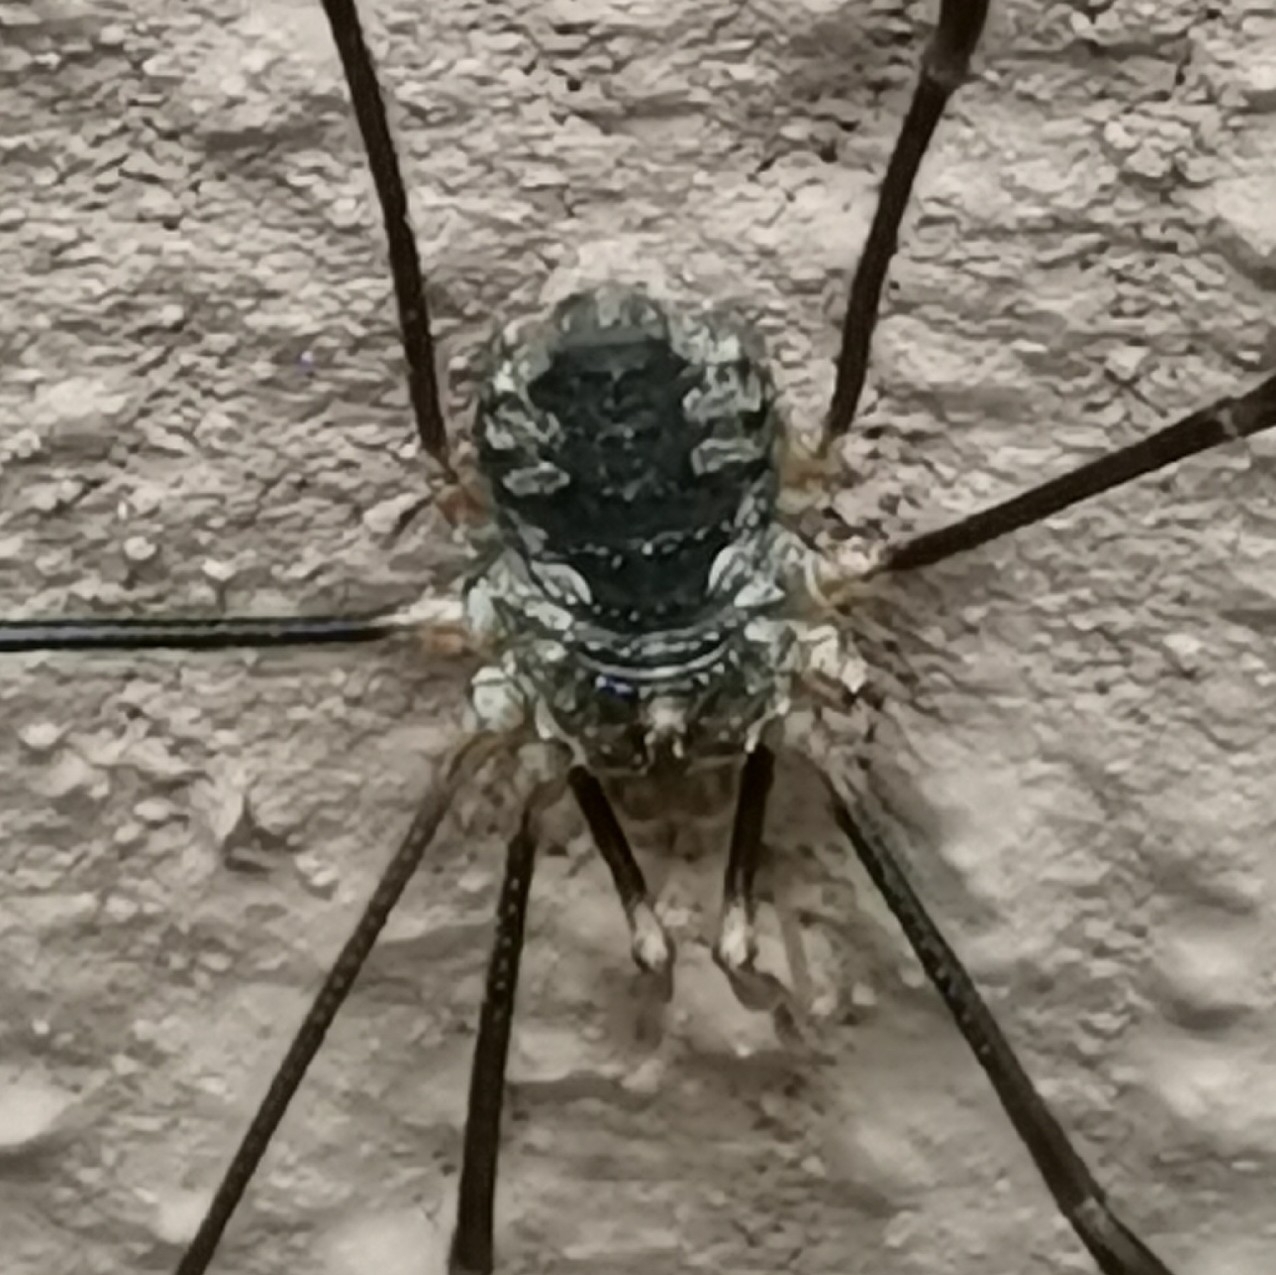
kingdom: Animalia
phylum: Arthropoda
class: Arachnida
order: Opiliones
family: Phalangiidae
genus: Phalangium
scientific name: Phalangium opilio
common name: Daddy longleg
